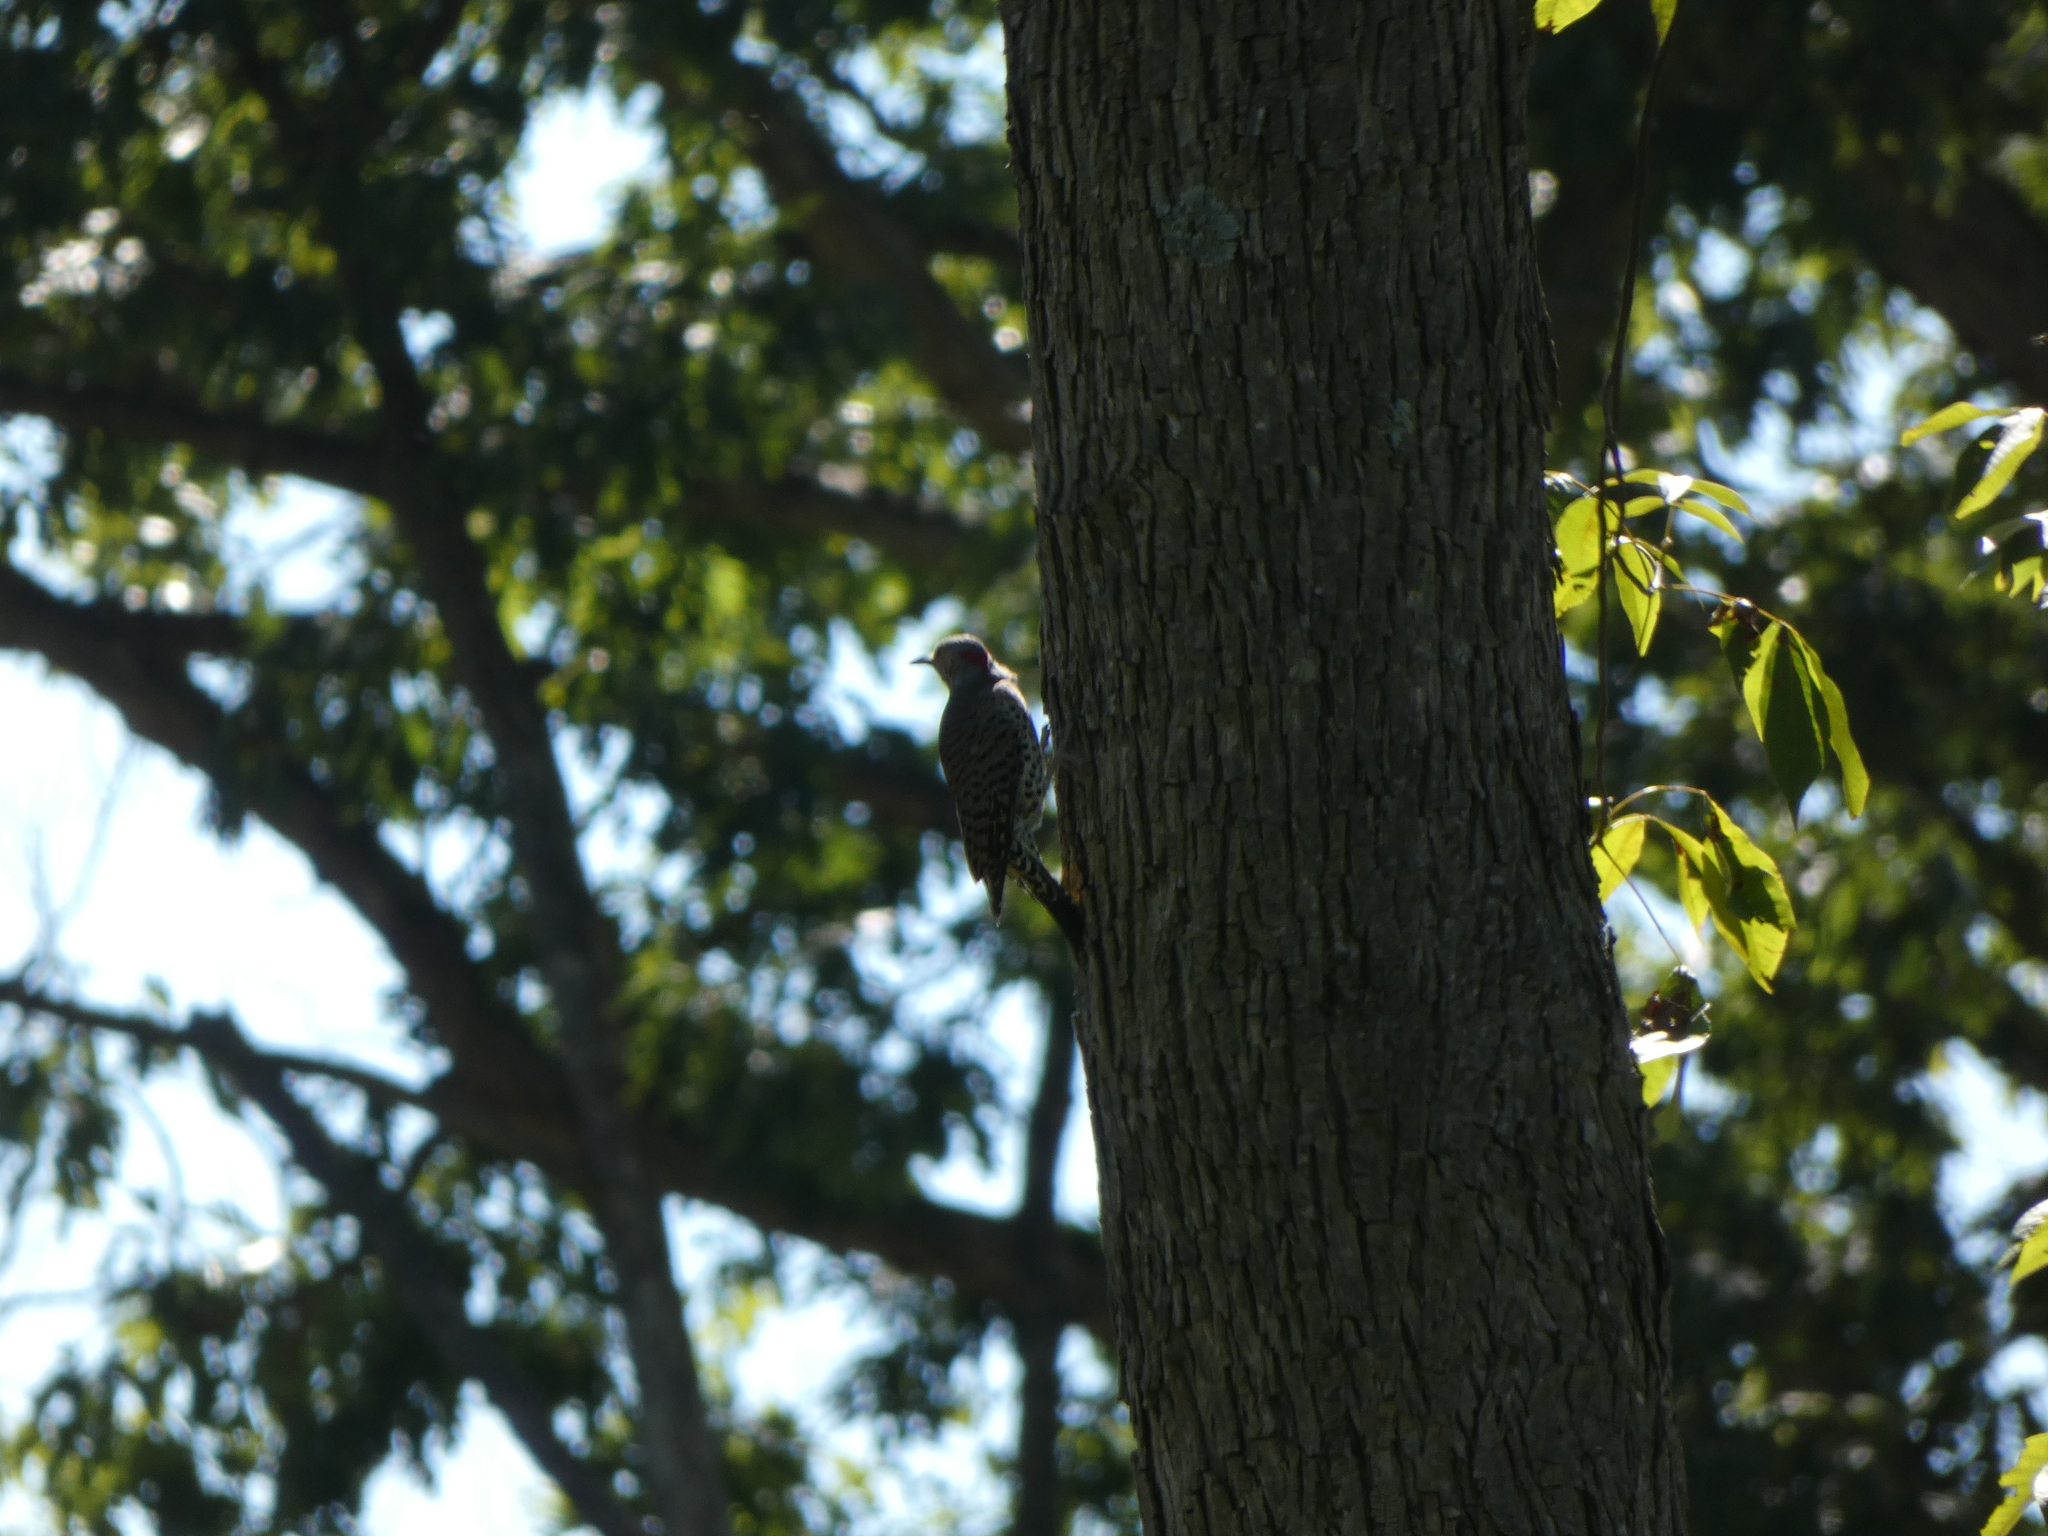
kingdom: Animalia
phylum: Chordata
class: Aves
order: Piciformes
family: Picidae
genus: Colaptes
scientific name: Colaptes auratus
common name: Northern flicker
